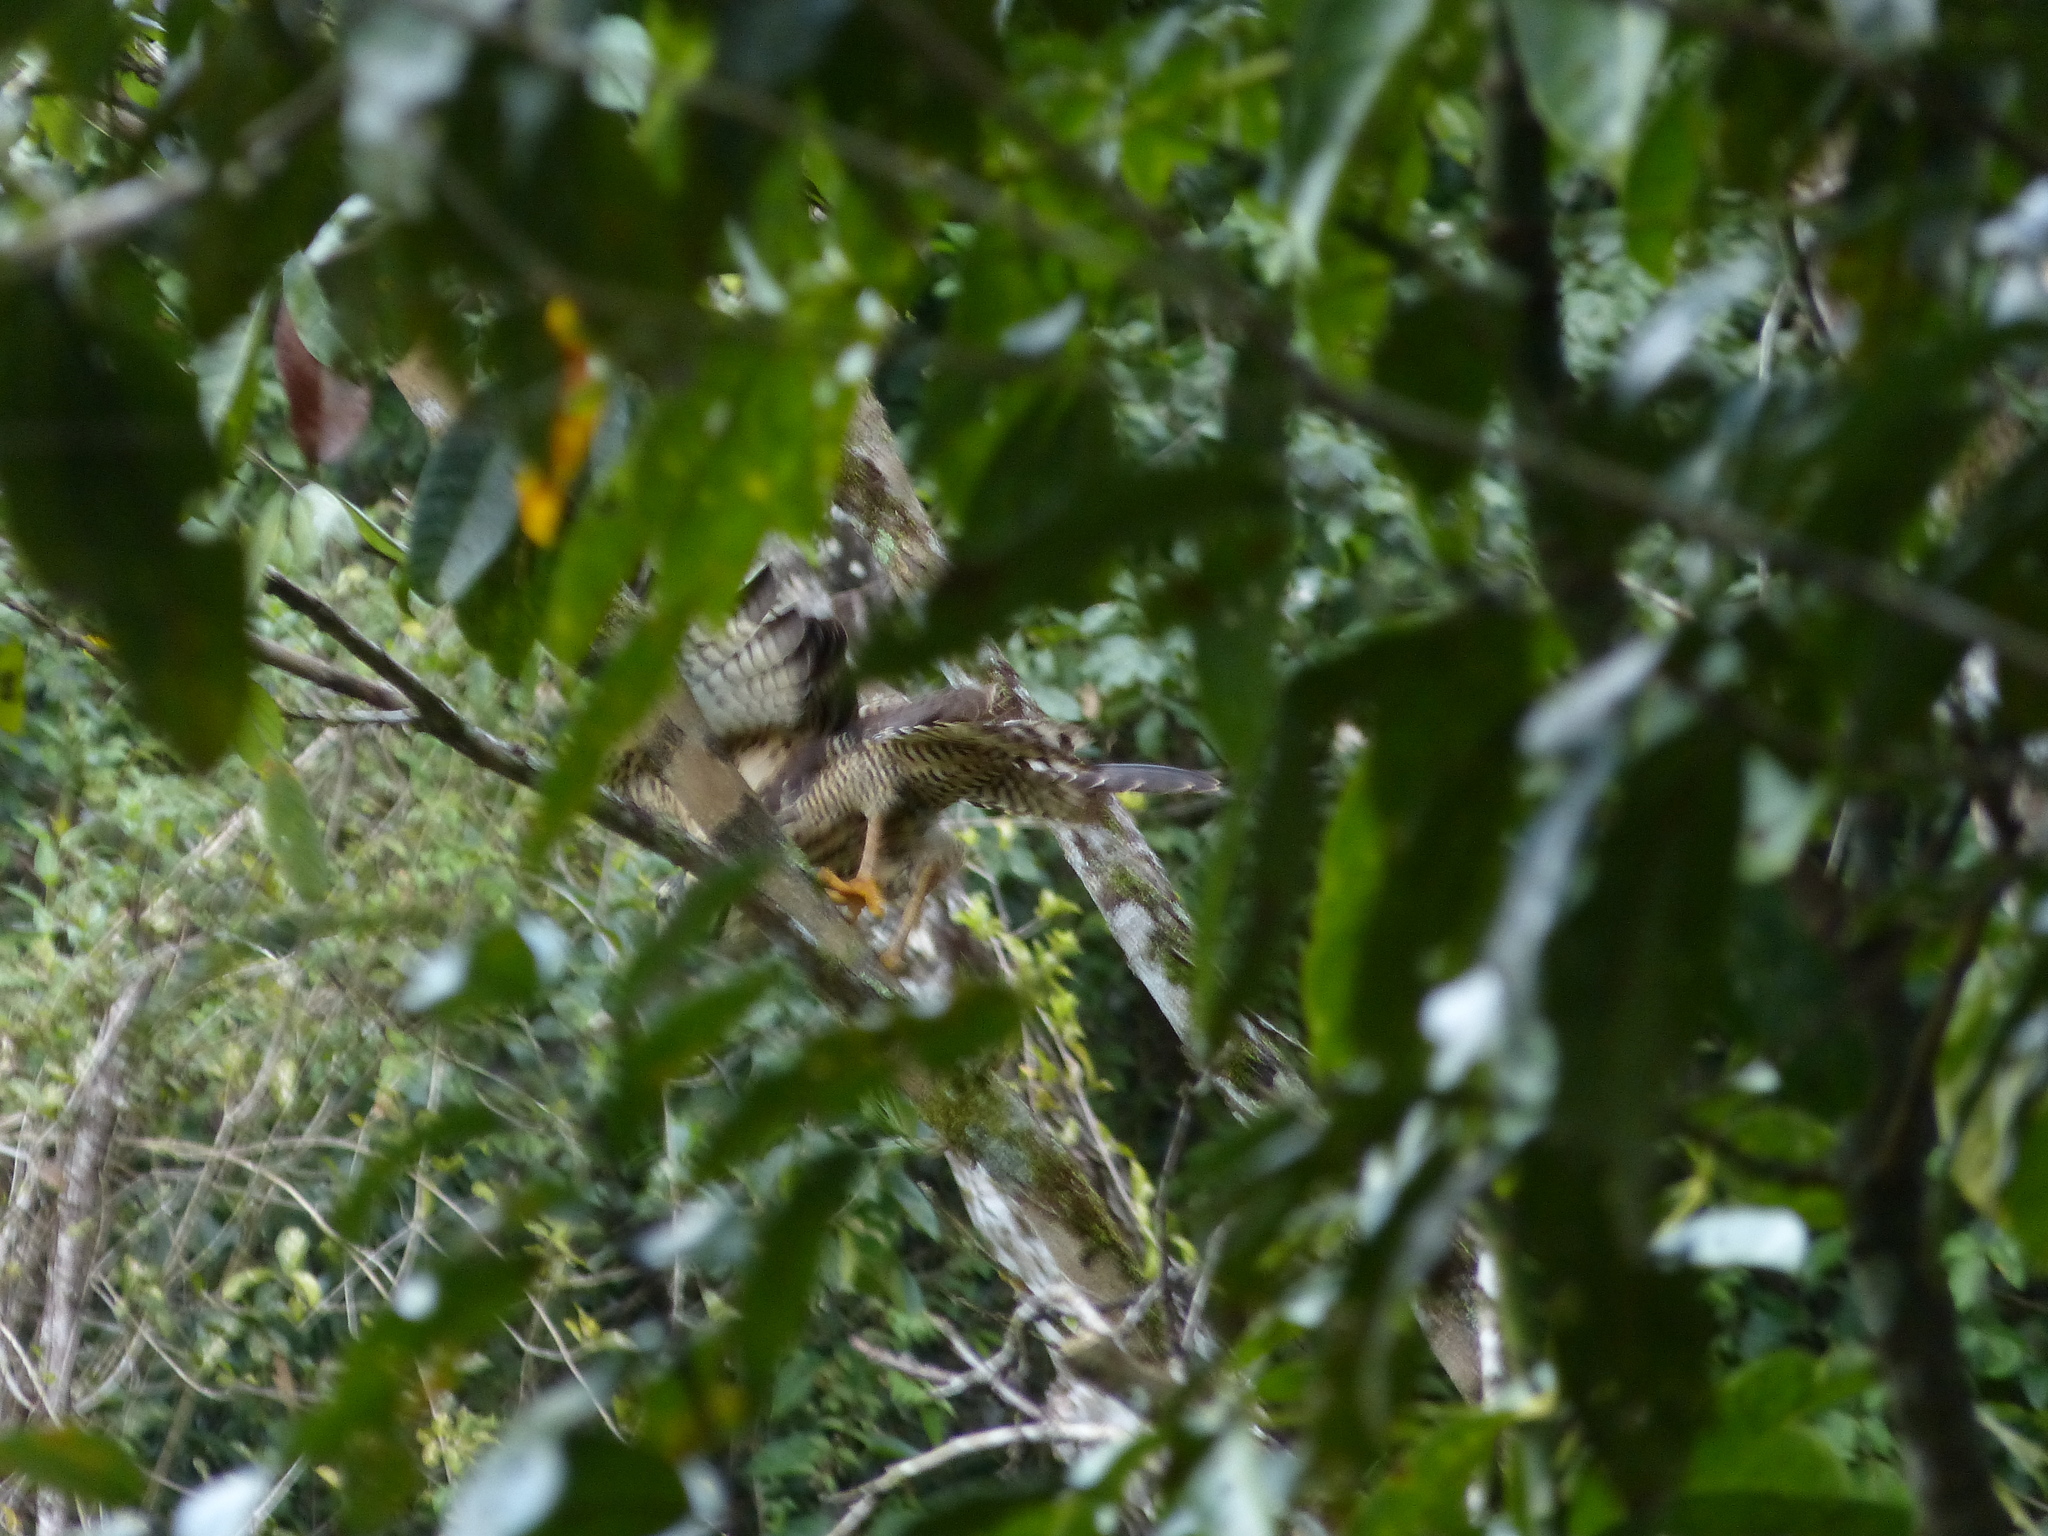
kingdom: Animalia
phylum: Chordata
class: Aves
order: Accipitriformes
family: Accipitridae
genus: Buteogallus
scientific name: Buteogallus anthracinus
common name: Common black hawk
